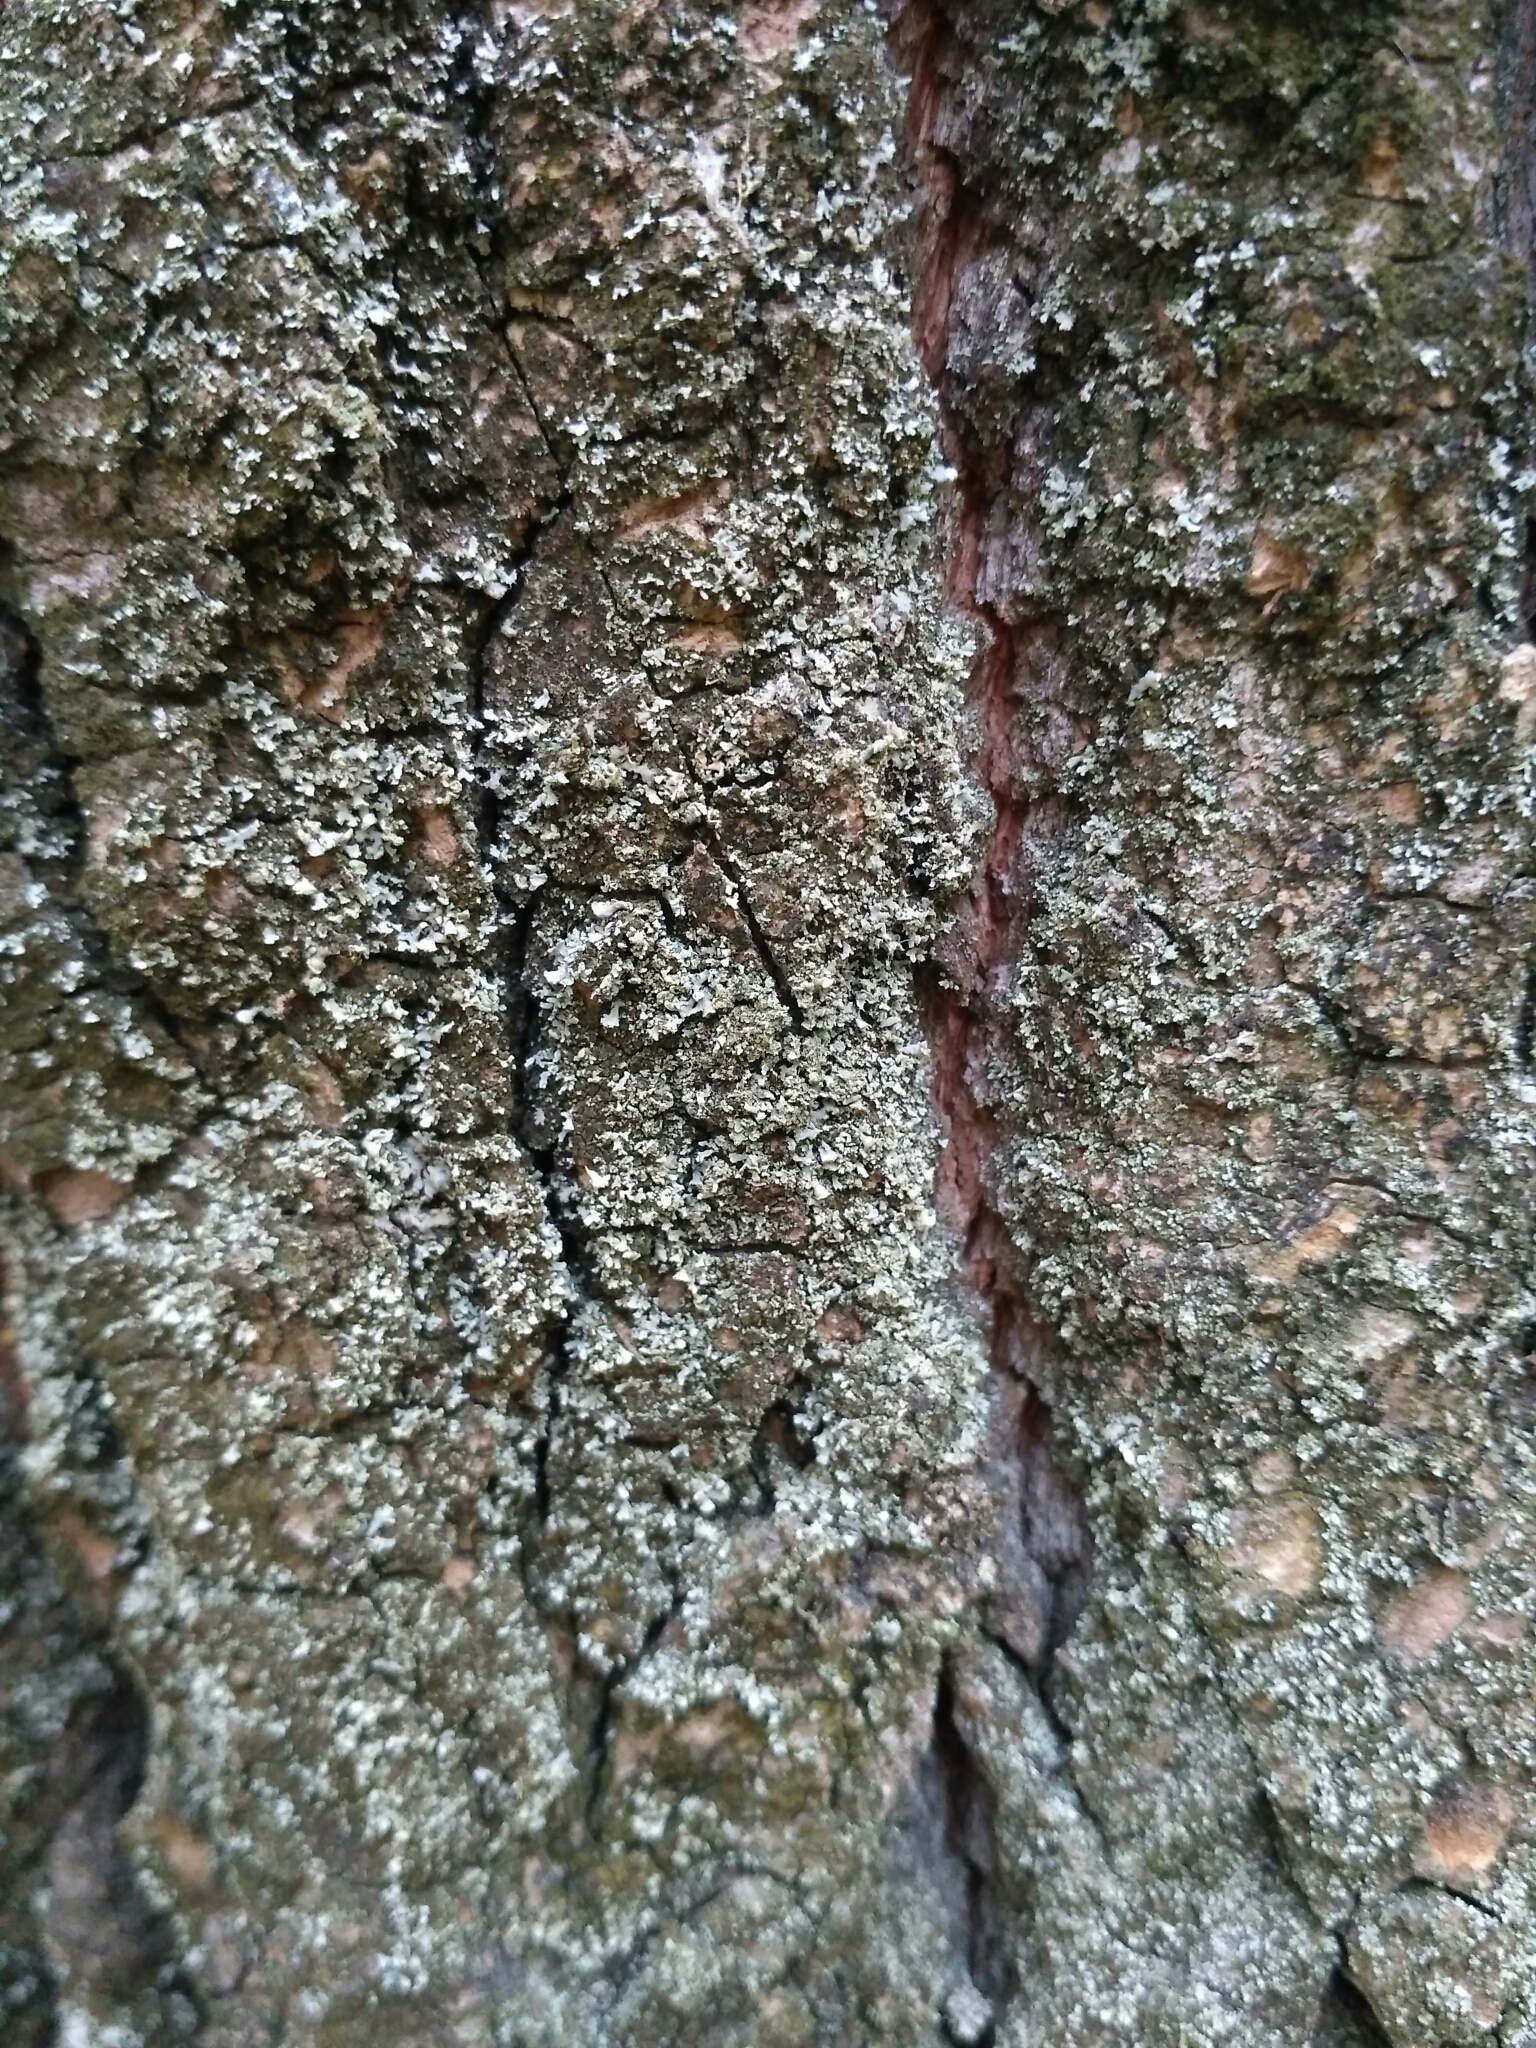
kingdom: Fungi
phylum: Ascomycota
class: Lecanoromycetes
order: Caliciales
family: Physciaceae
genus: Physcia
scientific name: Physcia adscendens
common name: Hooded rosette lichen
